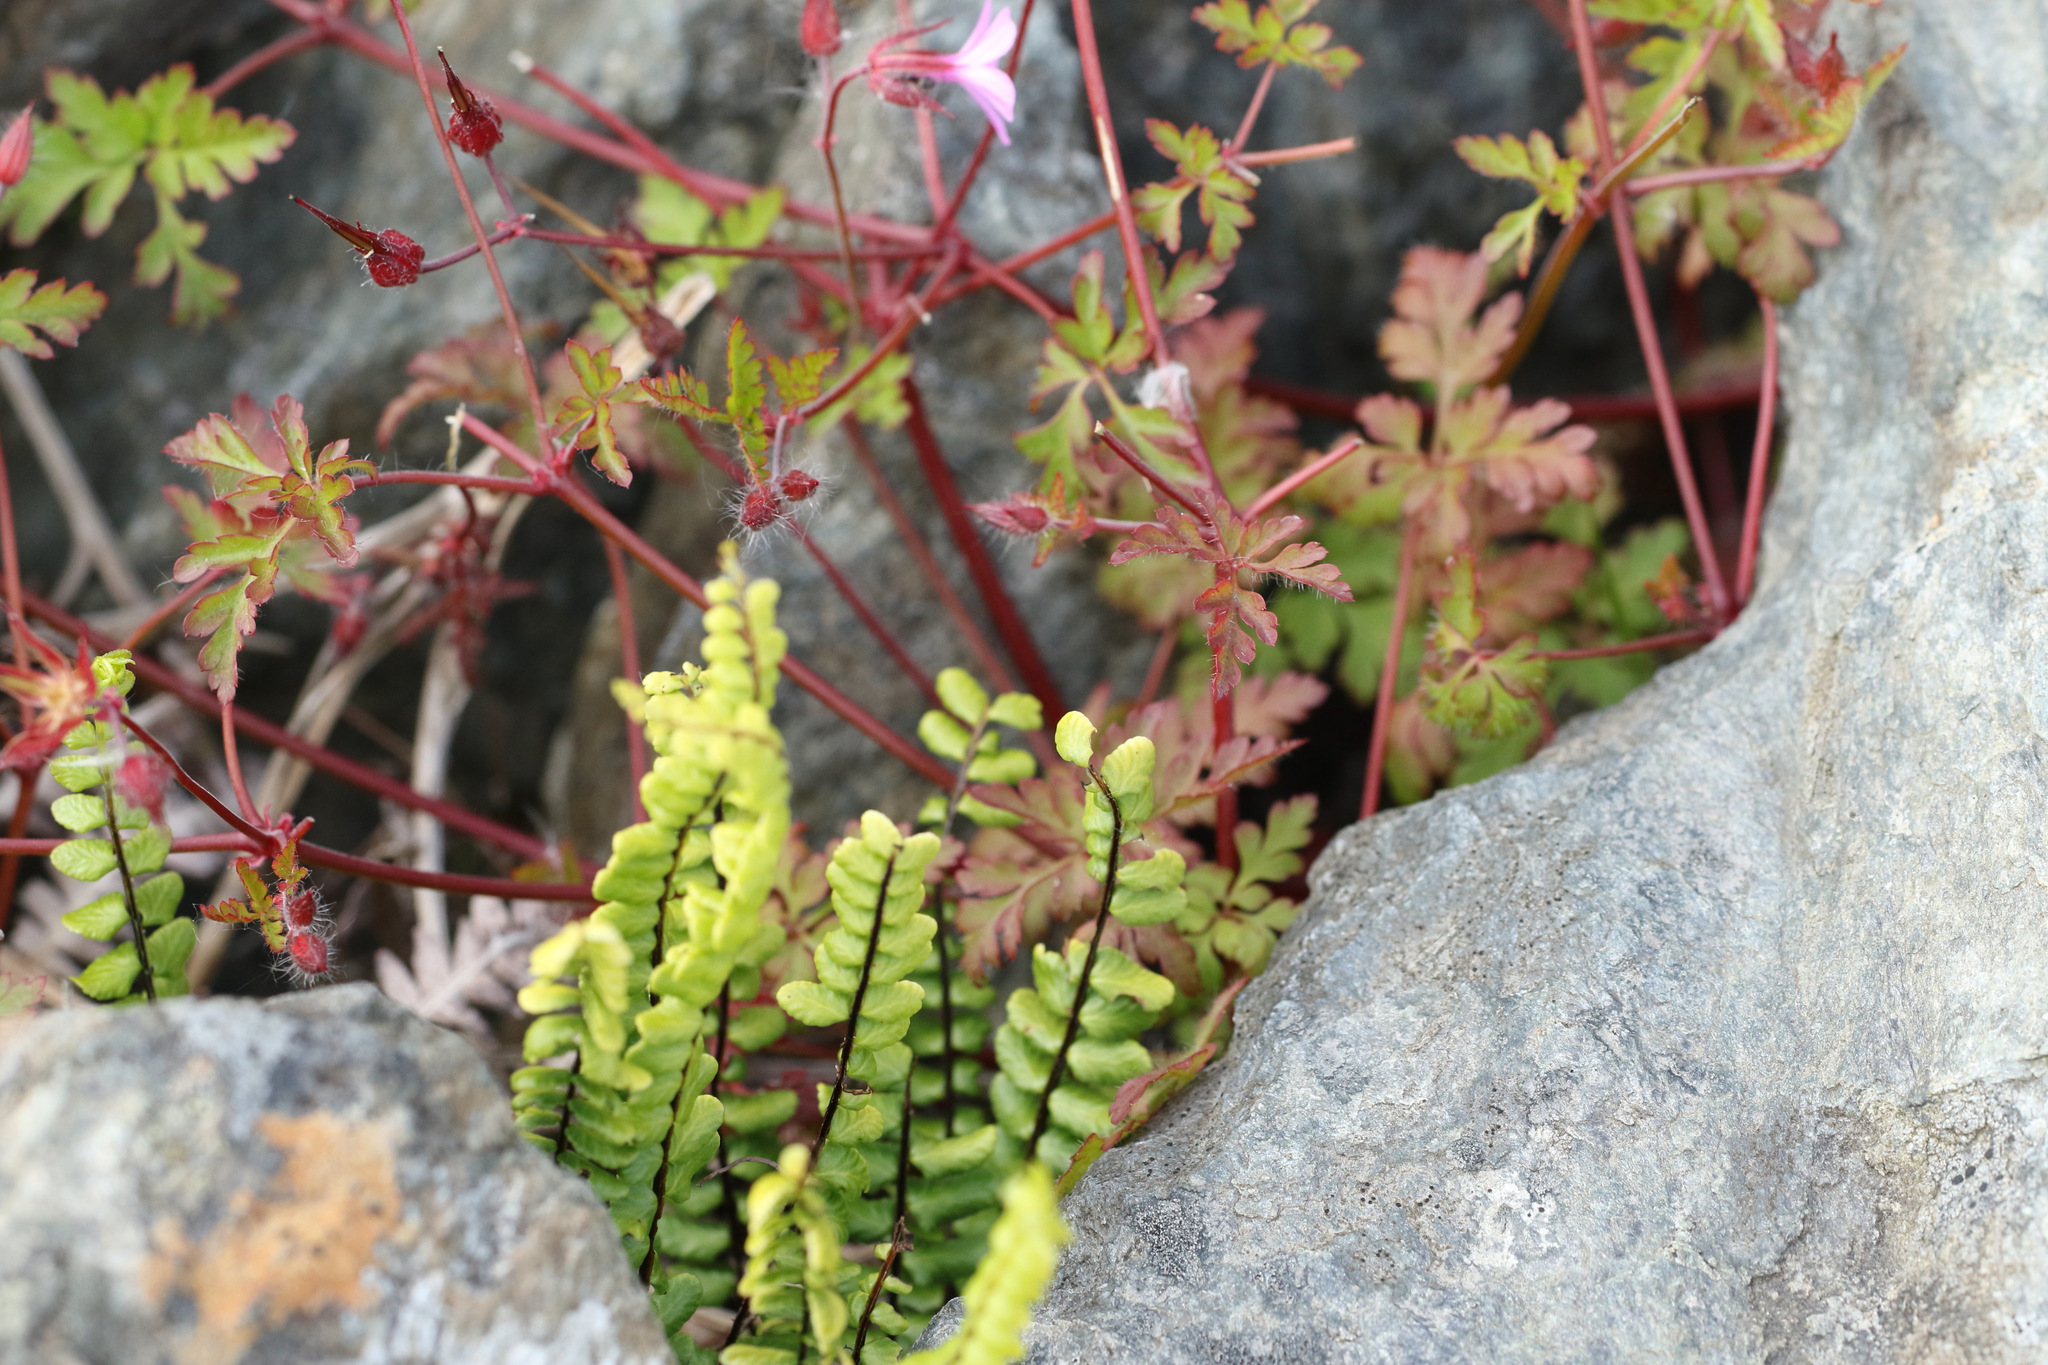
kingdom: Plantae
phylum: Tracheophyta
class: Polypodiopsida
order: Polypodiales
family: Aspleniaceae
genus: Asplenium
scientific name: Asplenium trichomanes
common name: Maidenhair spleenwort
